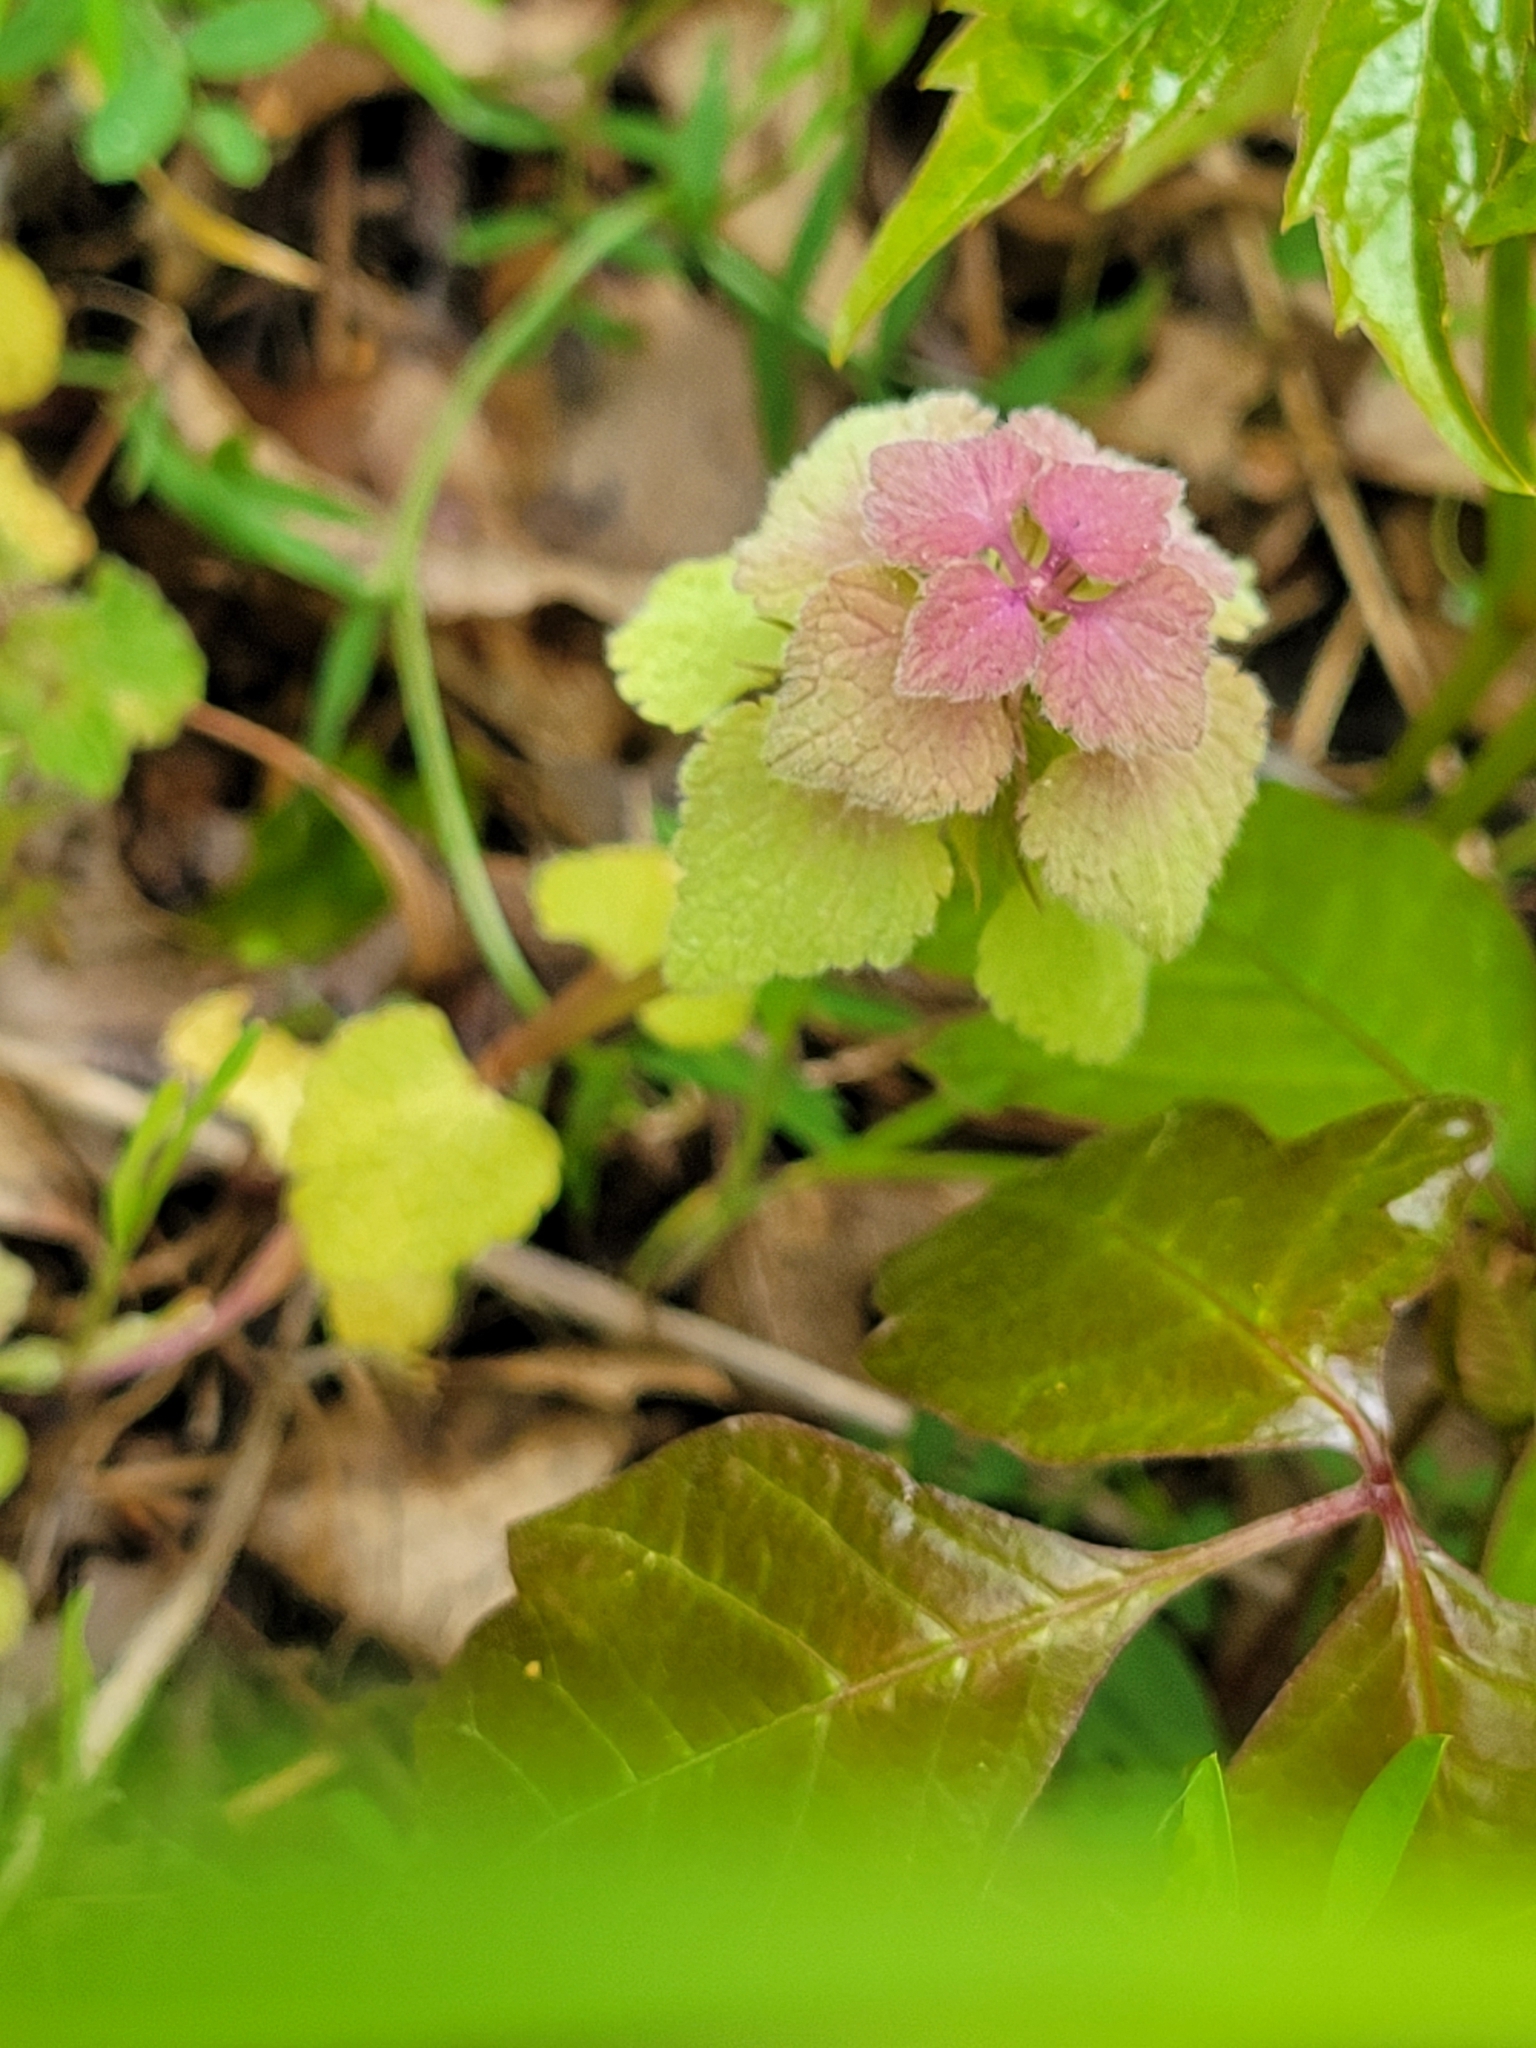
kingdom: Plantae
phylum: Tracheophyta
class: Magnoliopsida
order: Lamiales
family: Lamiaceae
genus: Lamium
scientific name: Lamium purpureum
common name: Red dead-nettle
